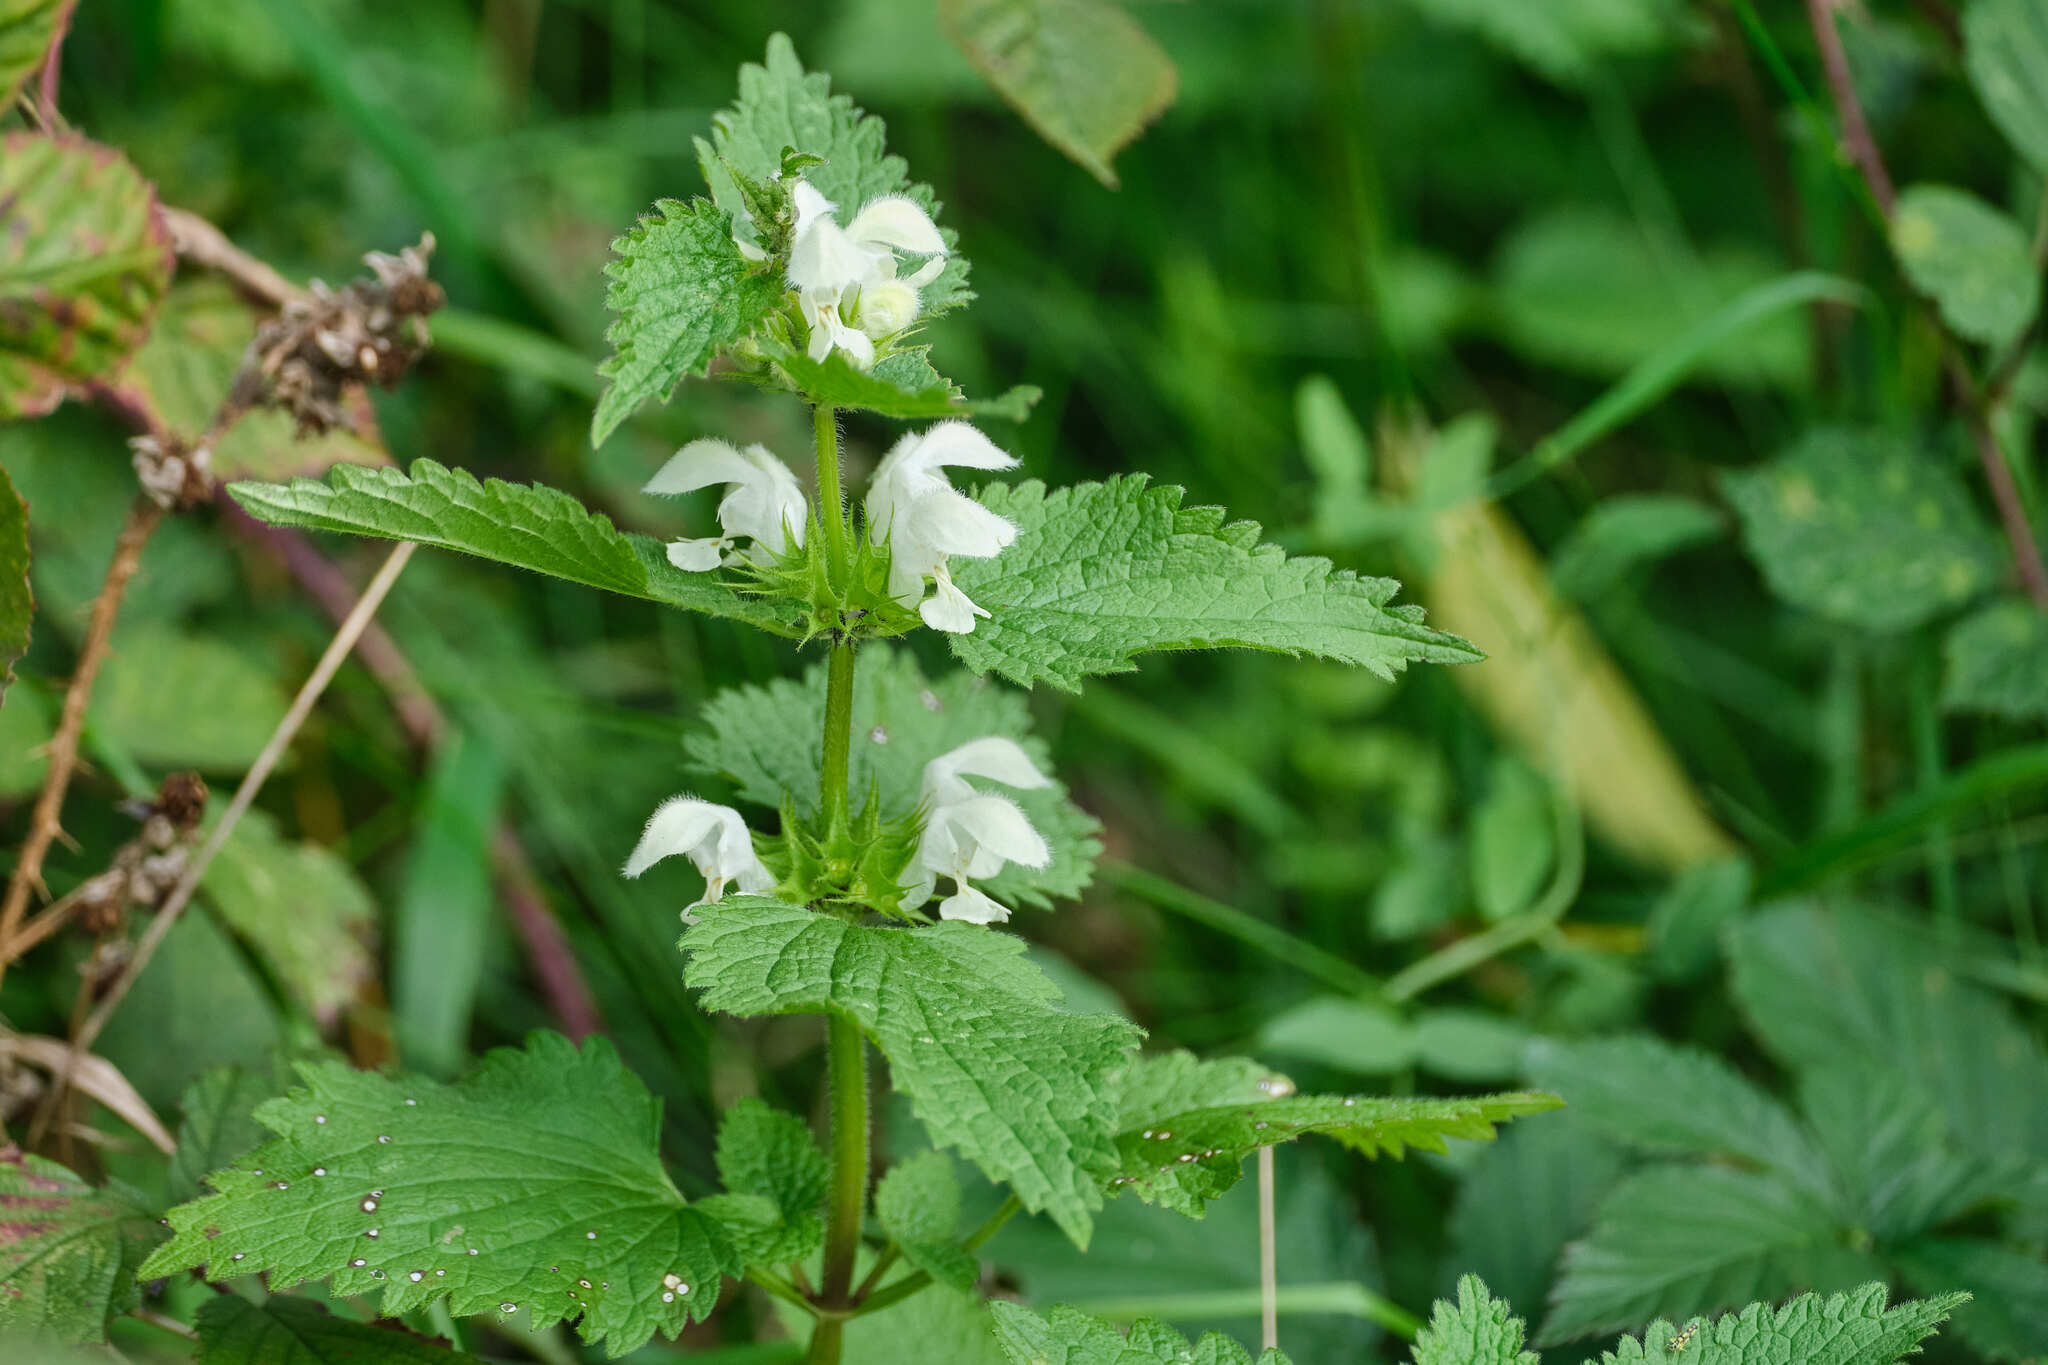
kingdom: Plantae
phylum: Tracheophyta
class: Magnoliopsida
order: Lamiales
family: Lamiaceae
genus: Lamium
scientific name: Lamium album
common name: White dead-nettle
